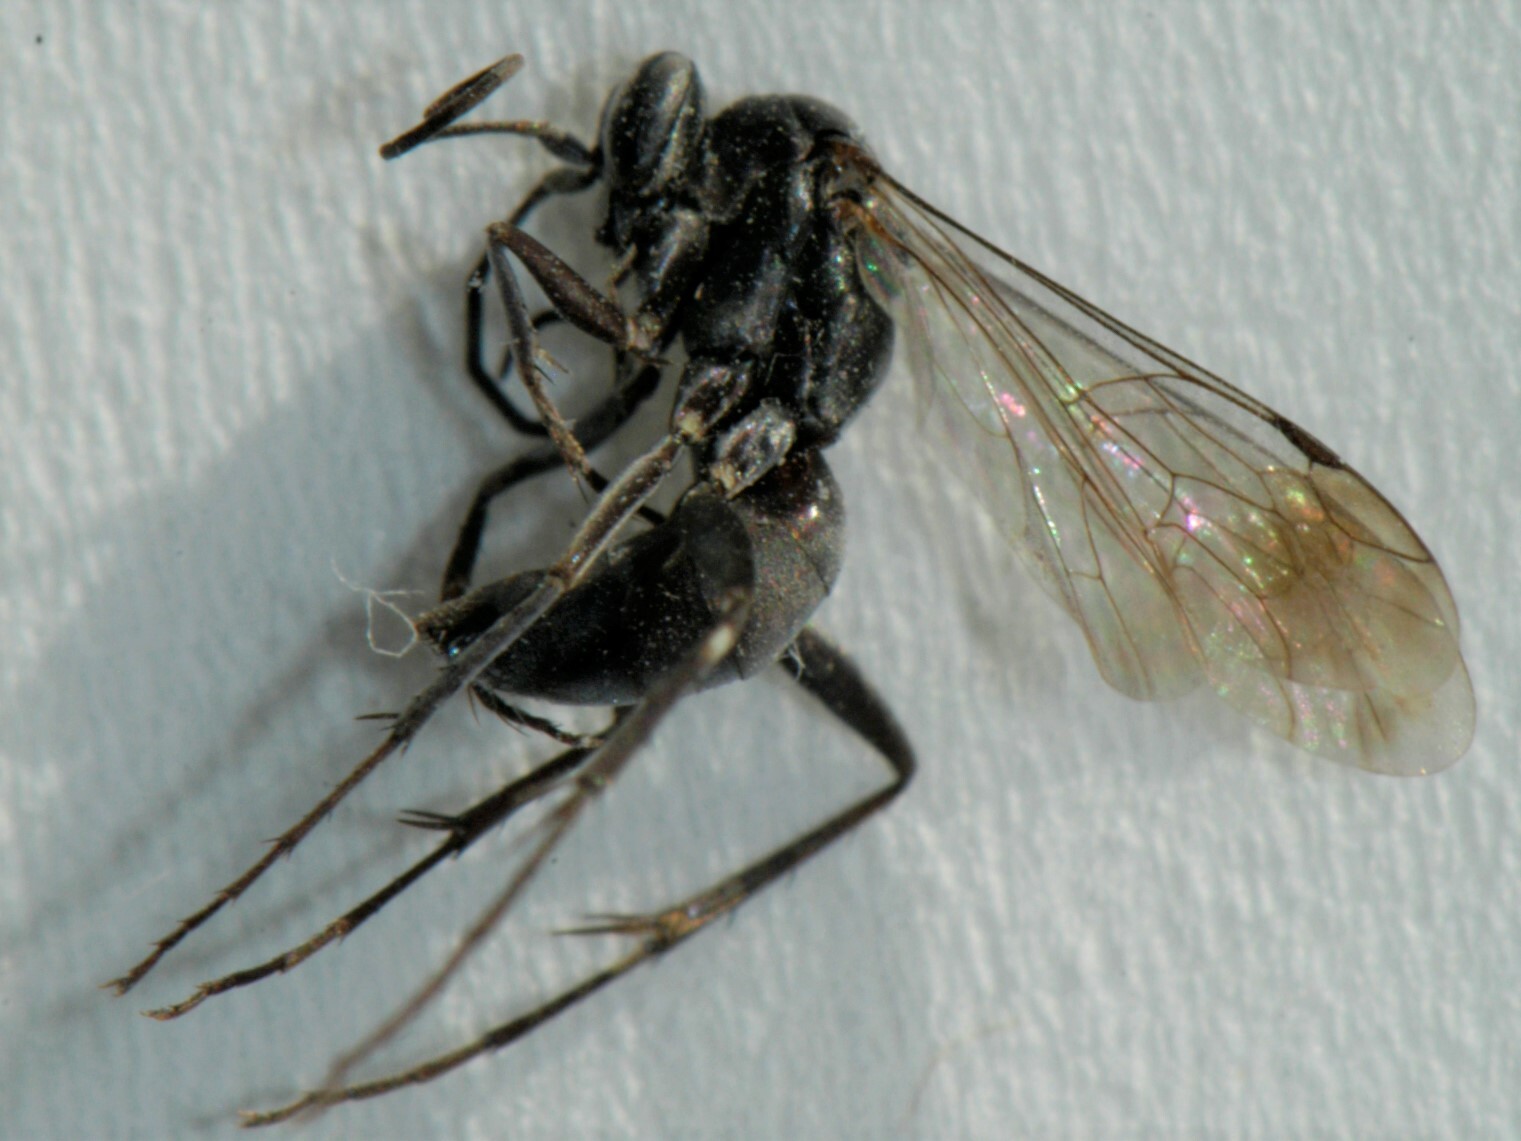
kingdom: Animalia
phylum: Arthropoda
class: Insecta
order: Hymenoptera
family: Pompilidae
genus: Agenioideus
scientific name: Agenioideus humilis
